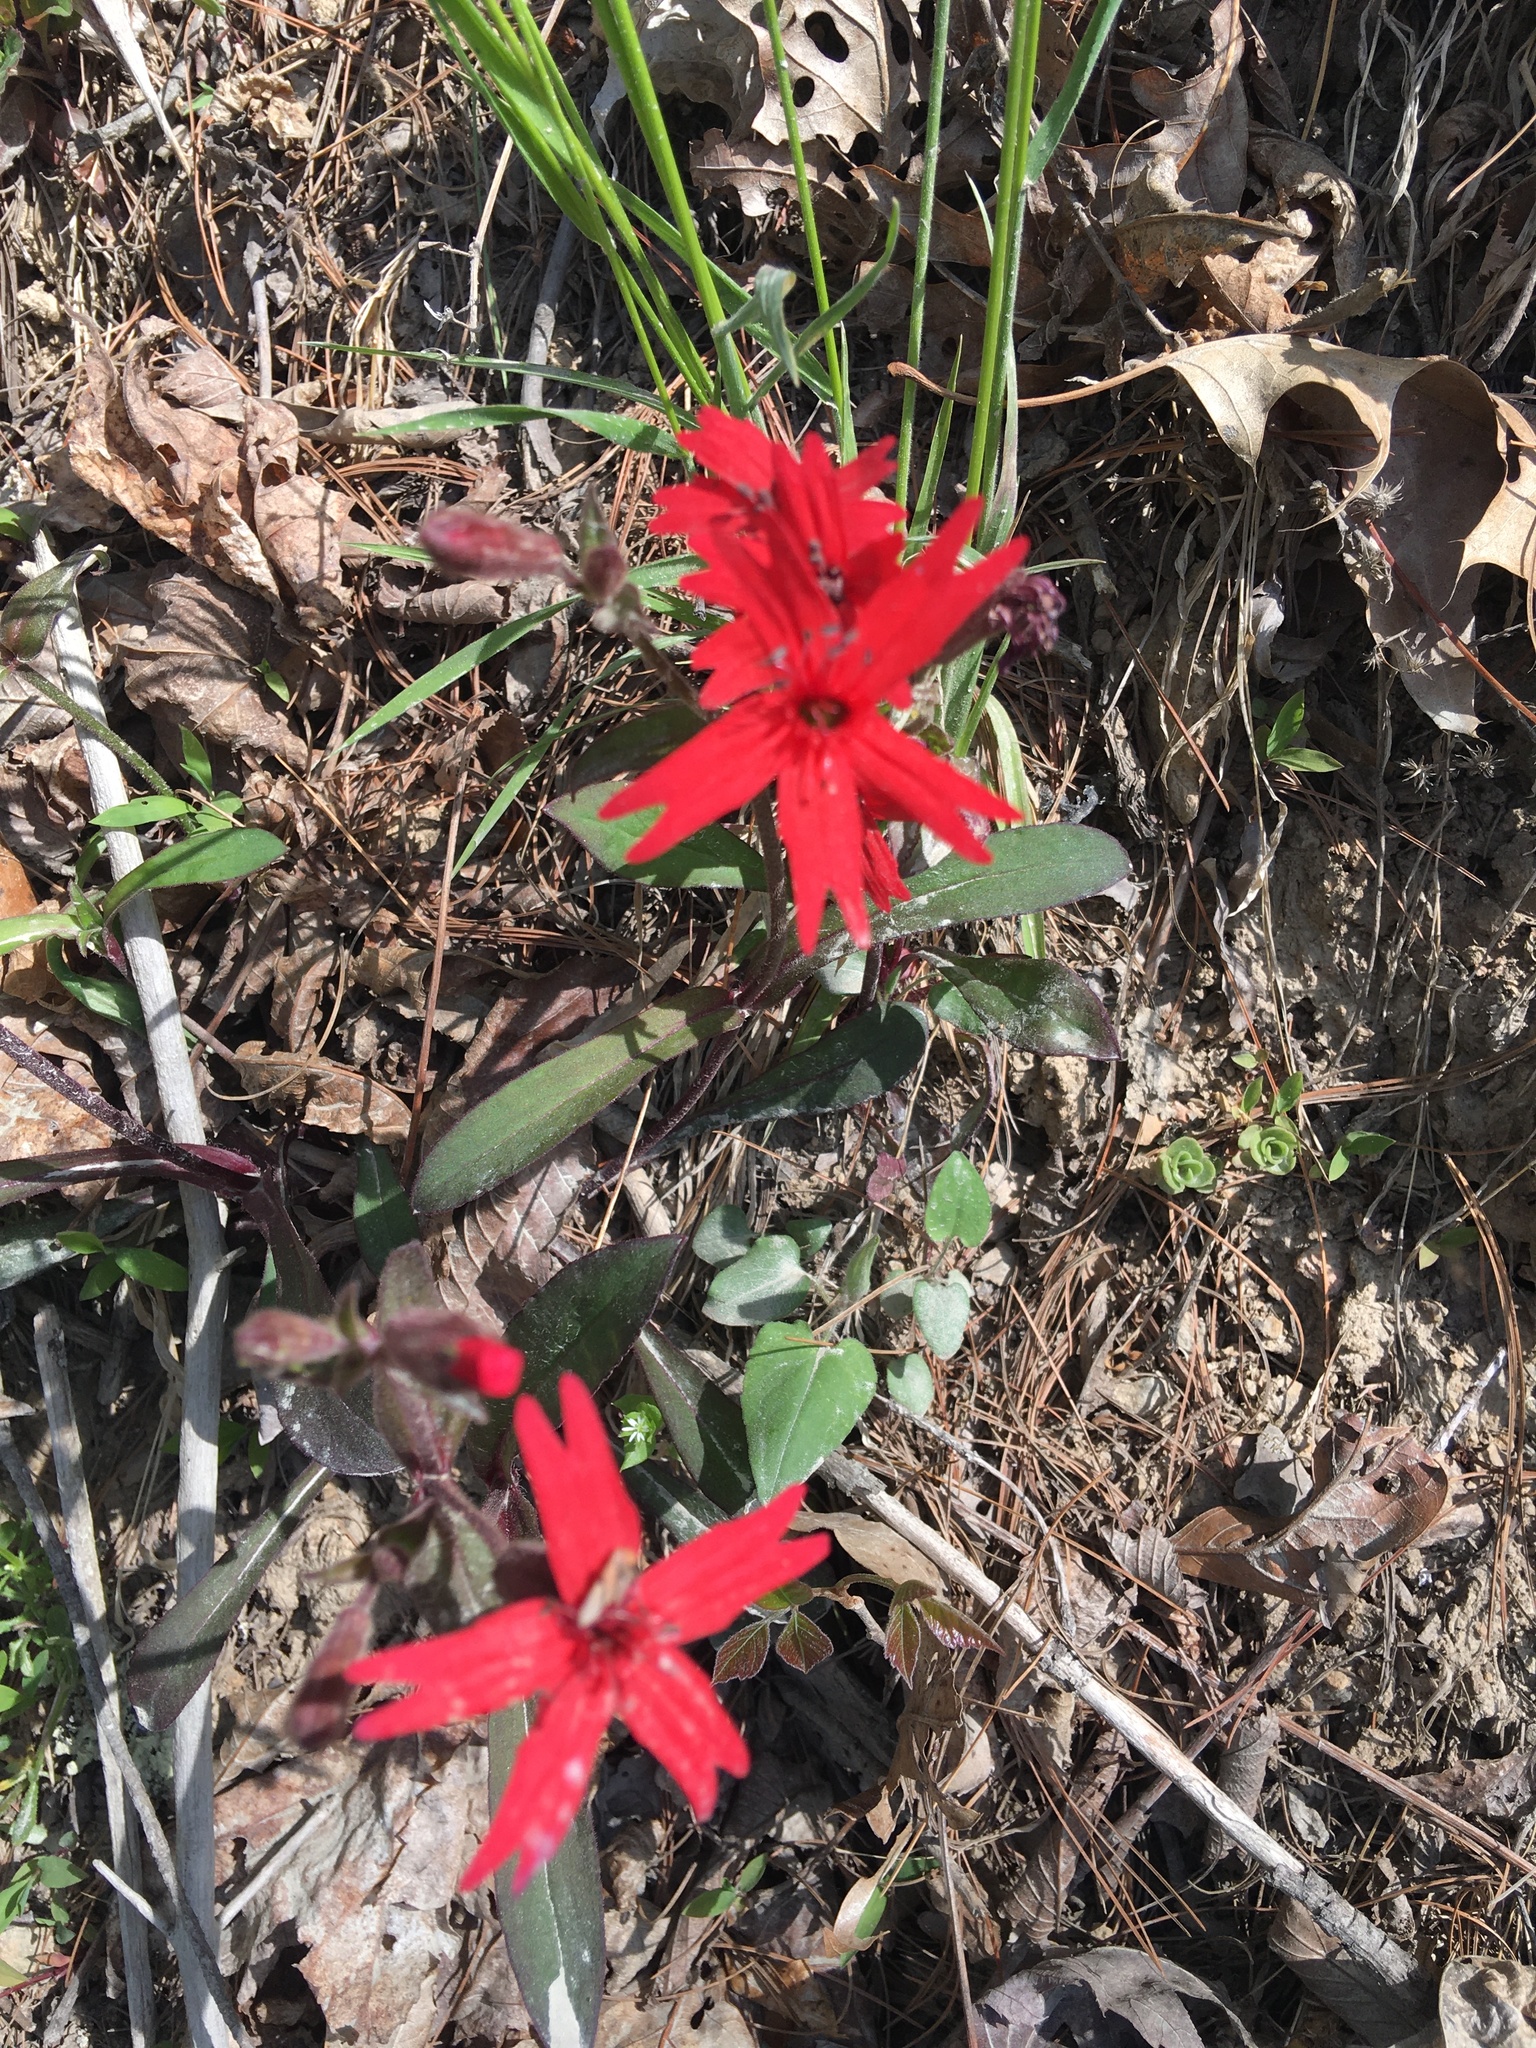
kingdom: Plantae
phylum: Tracheophyta
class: Magnoliopsida
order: Caryophyllales
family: Caryophyllaceae
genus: Silene
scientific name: Silene virginica
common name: Fire-pink
